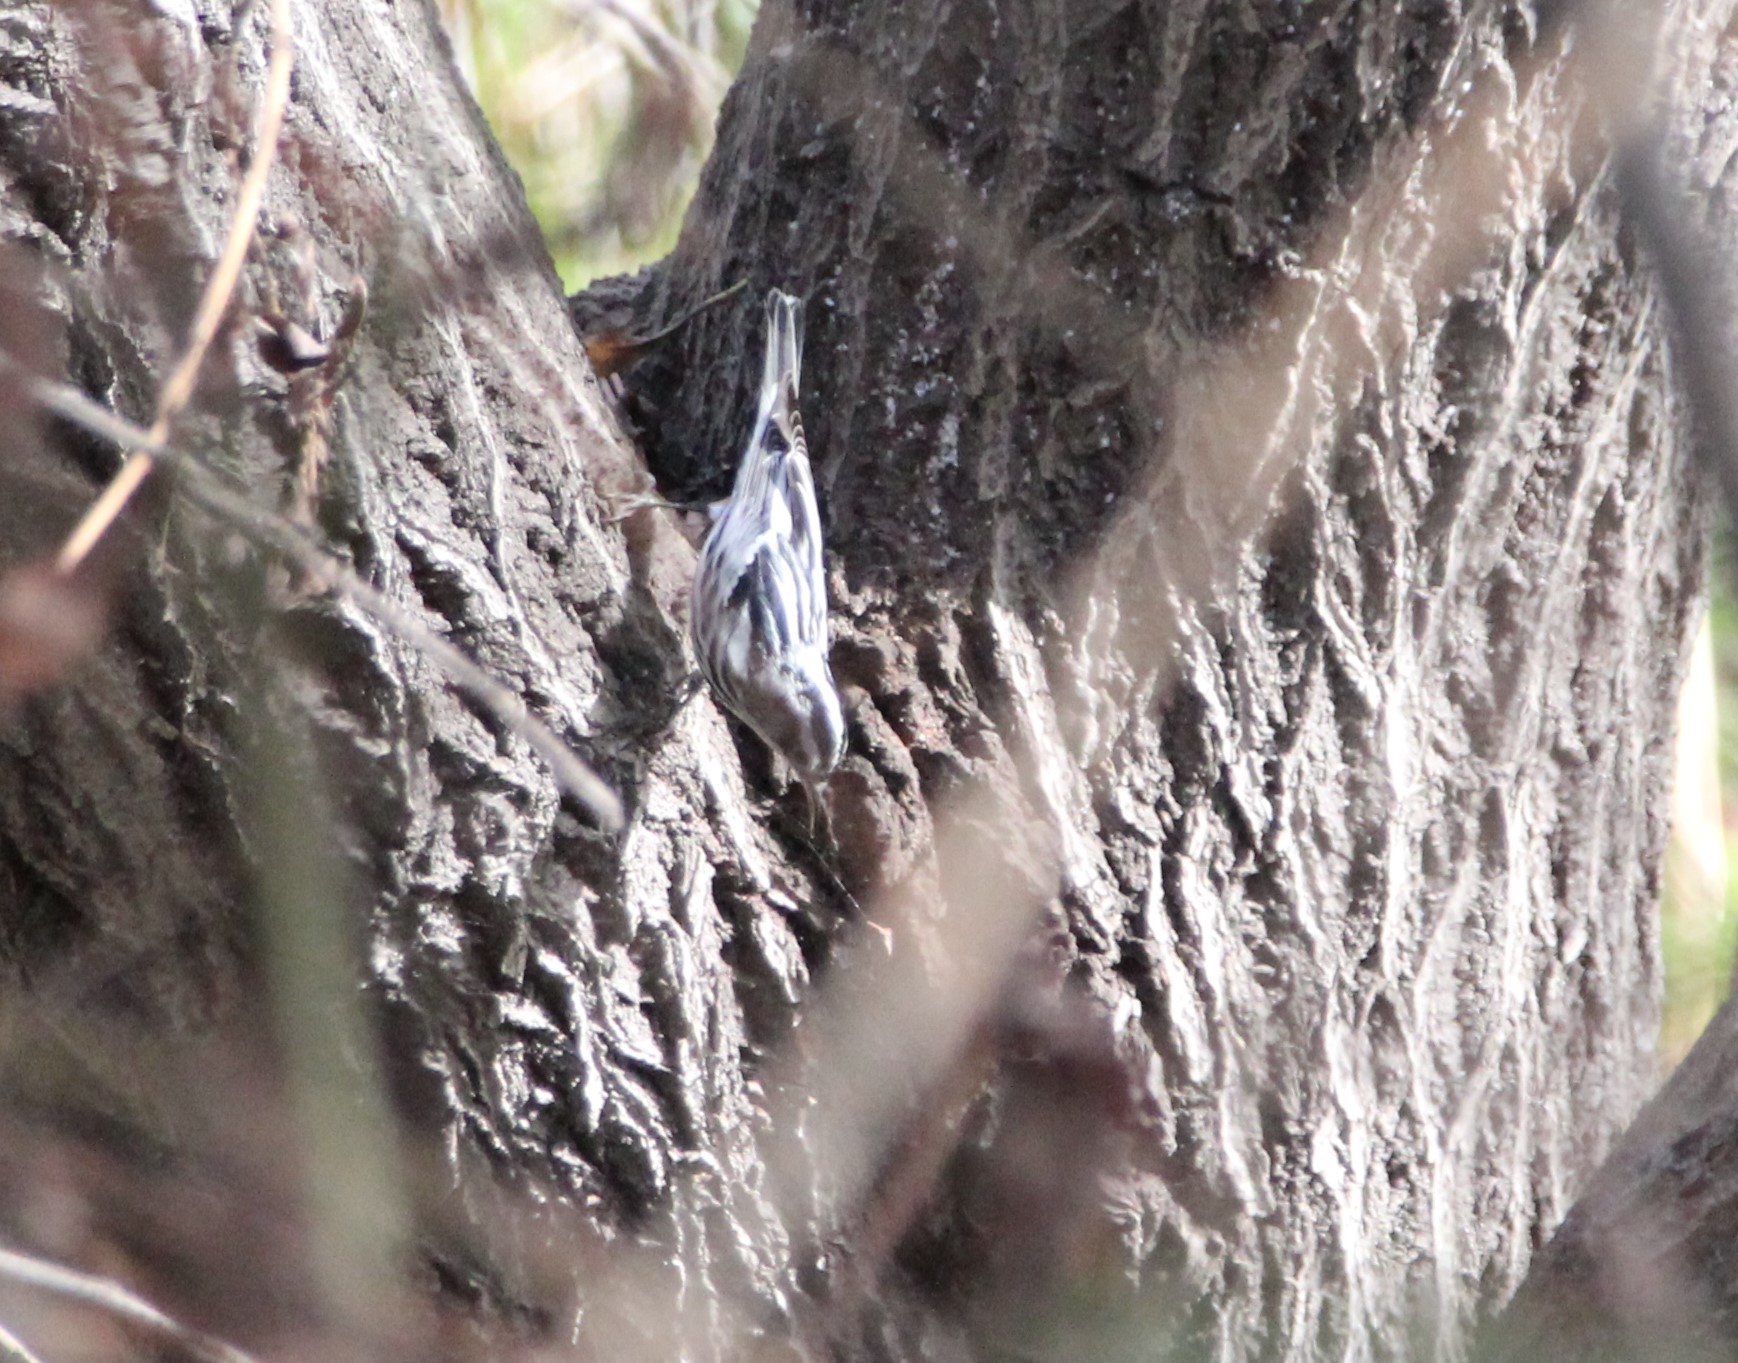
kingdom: Animalia
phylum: Chordata
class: Aves
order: Passeriformes
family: Parulidae
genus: Mniotilta
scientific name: Mniotilta varia
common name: Black-and-white warbler
